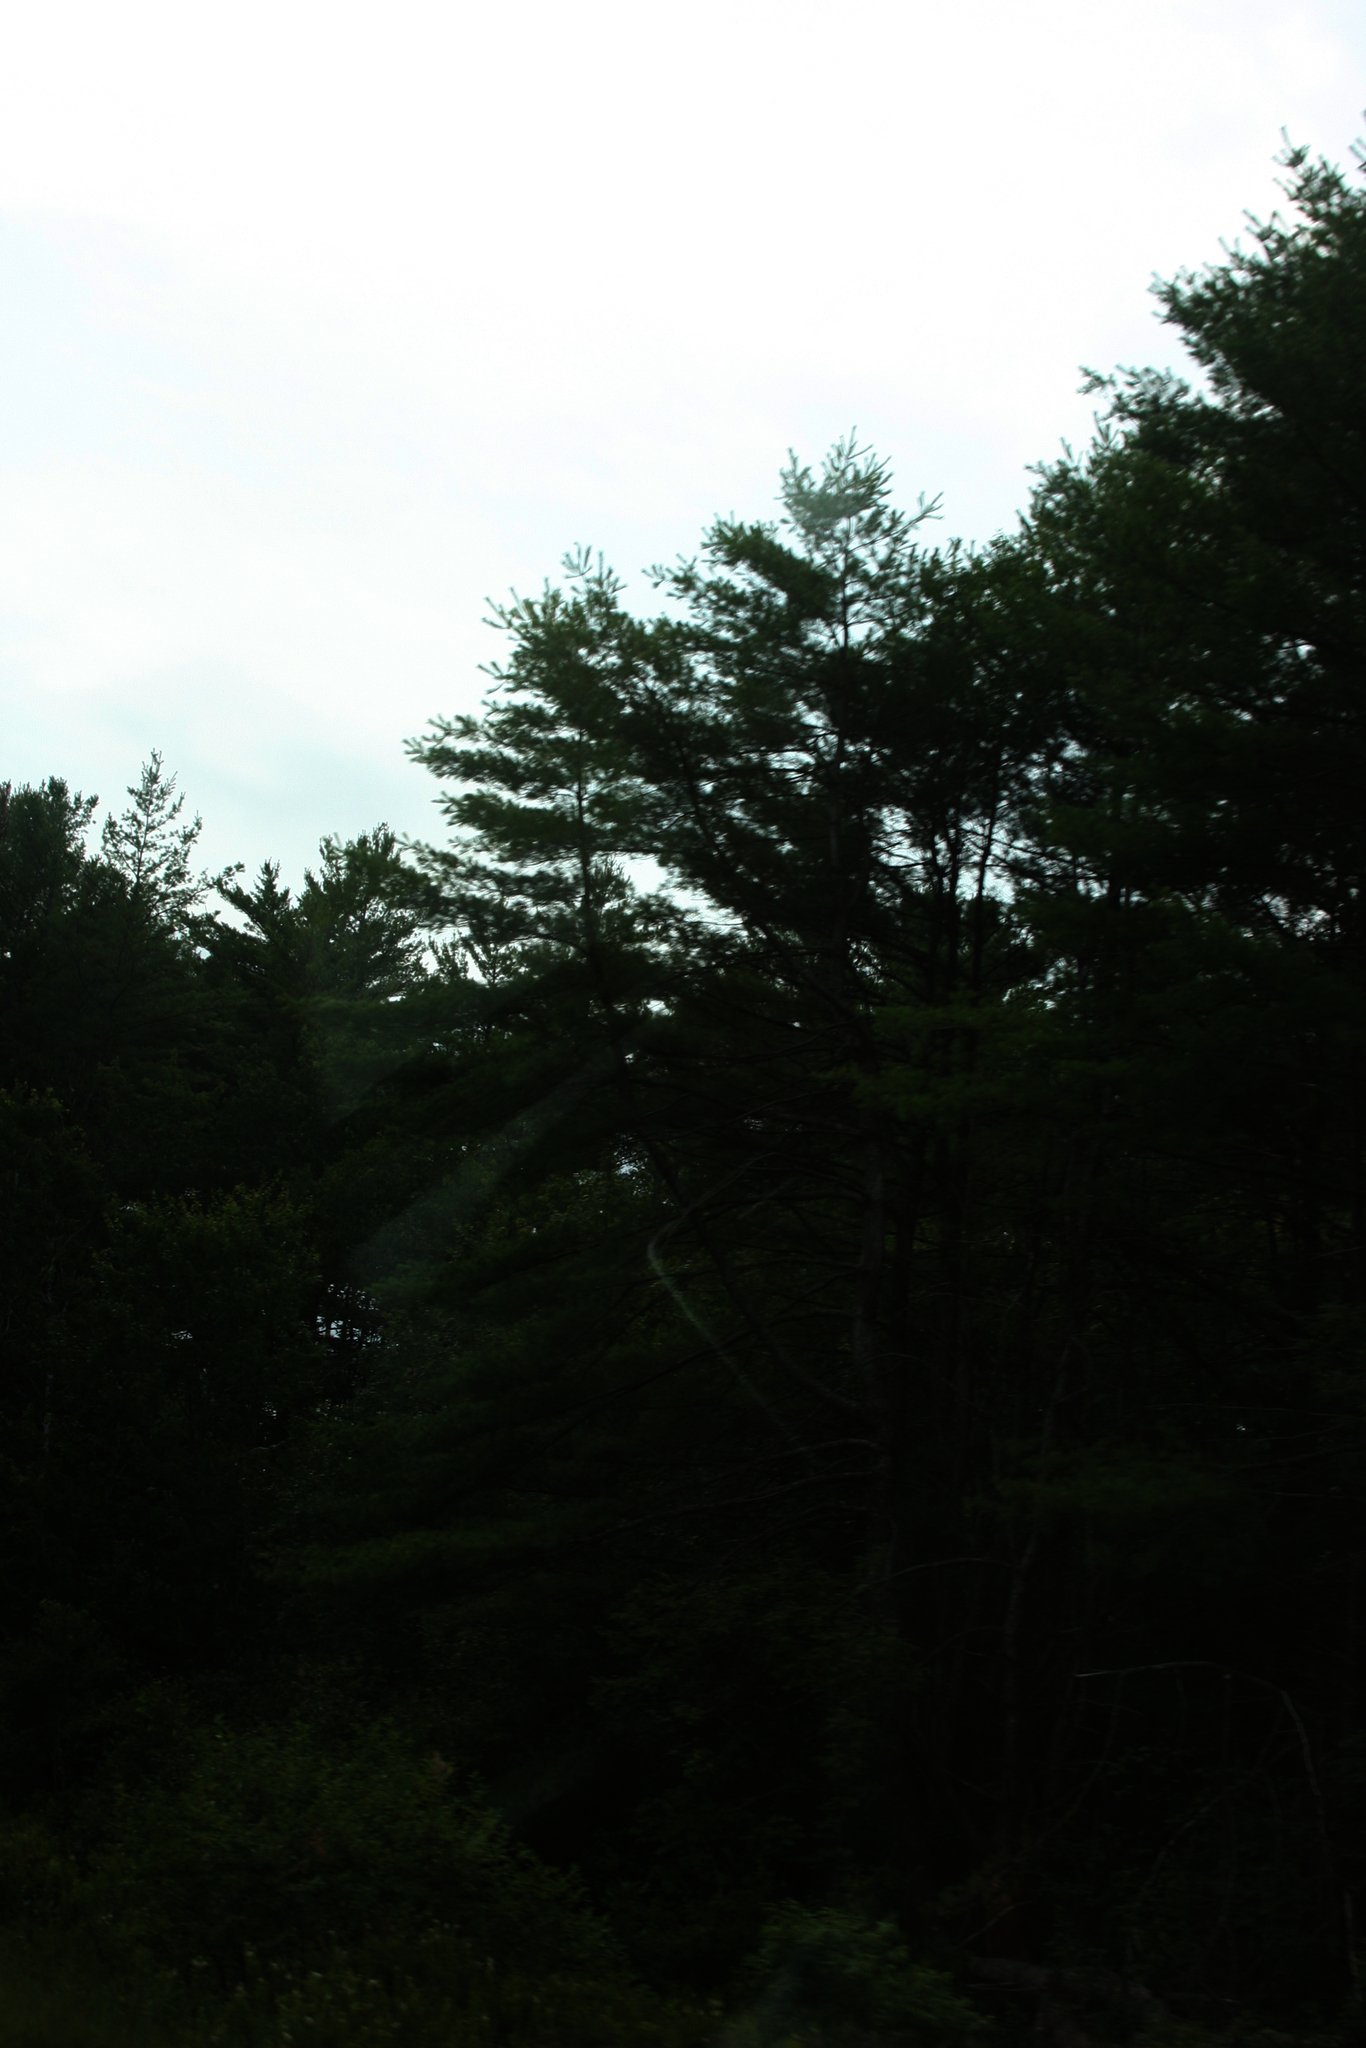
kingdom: Plantae
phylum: Tracheophyta
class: Pinopsida
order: Pinales
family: Pinaceae
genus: Pinus
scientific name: Pinus strobus
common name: Weymouth pine
